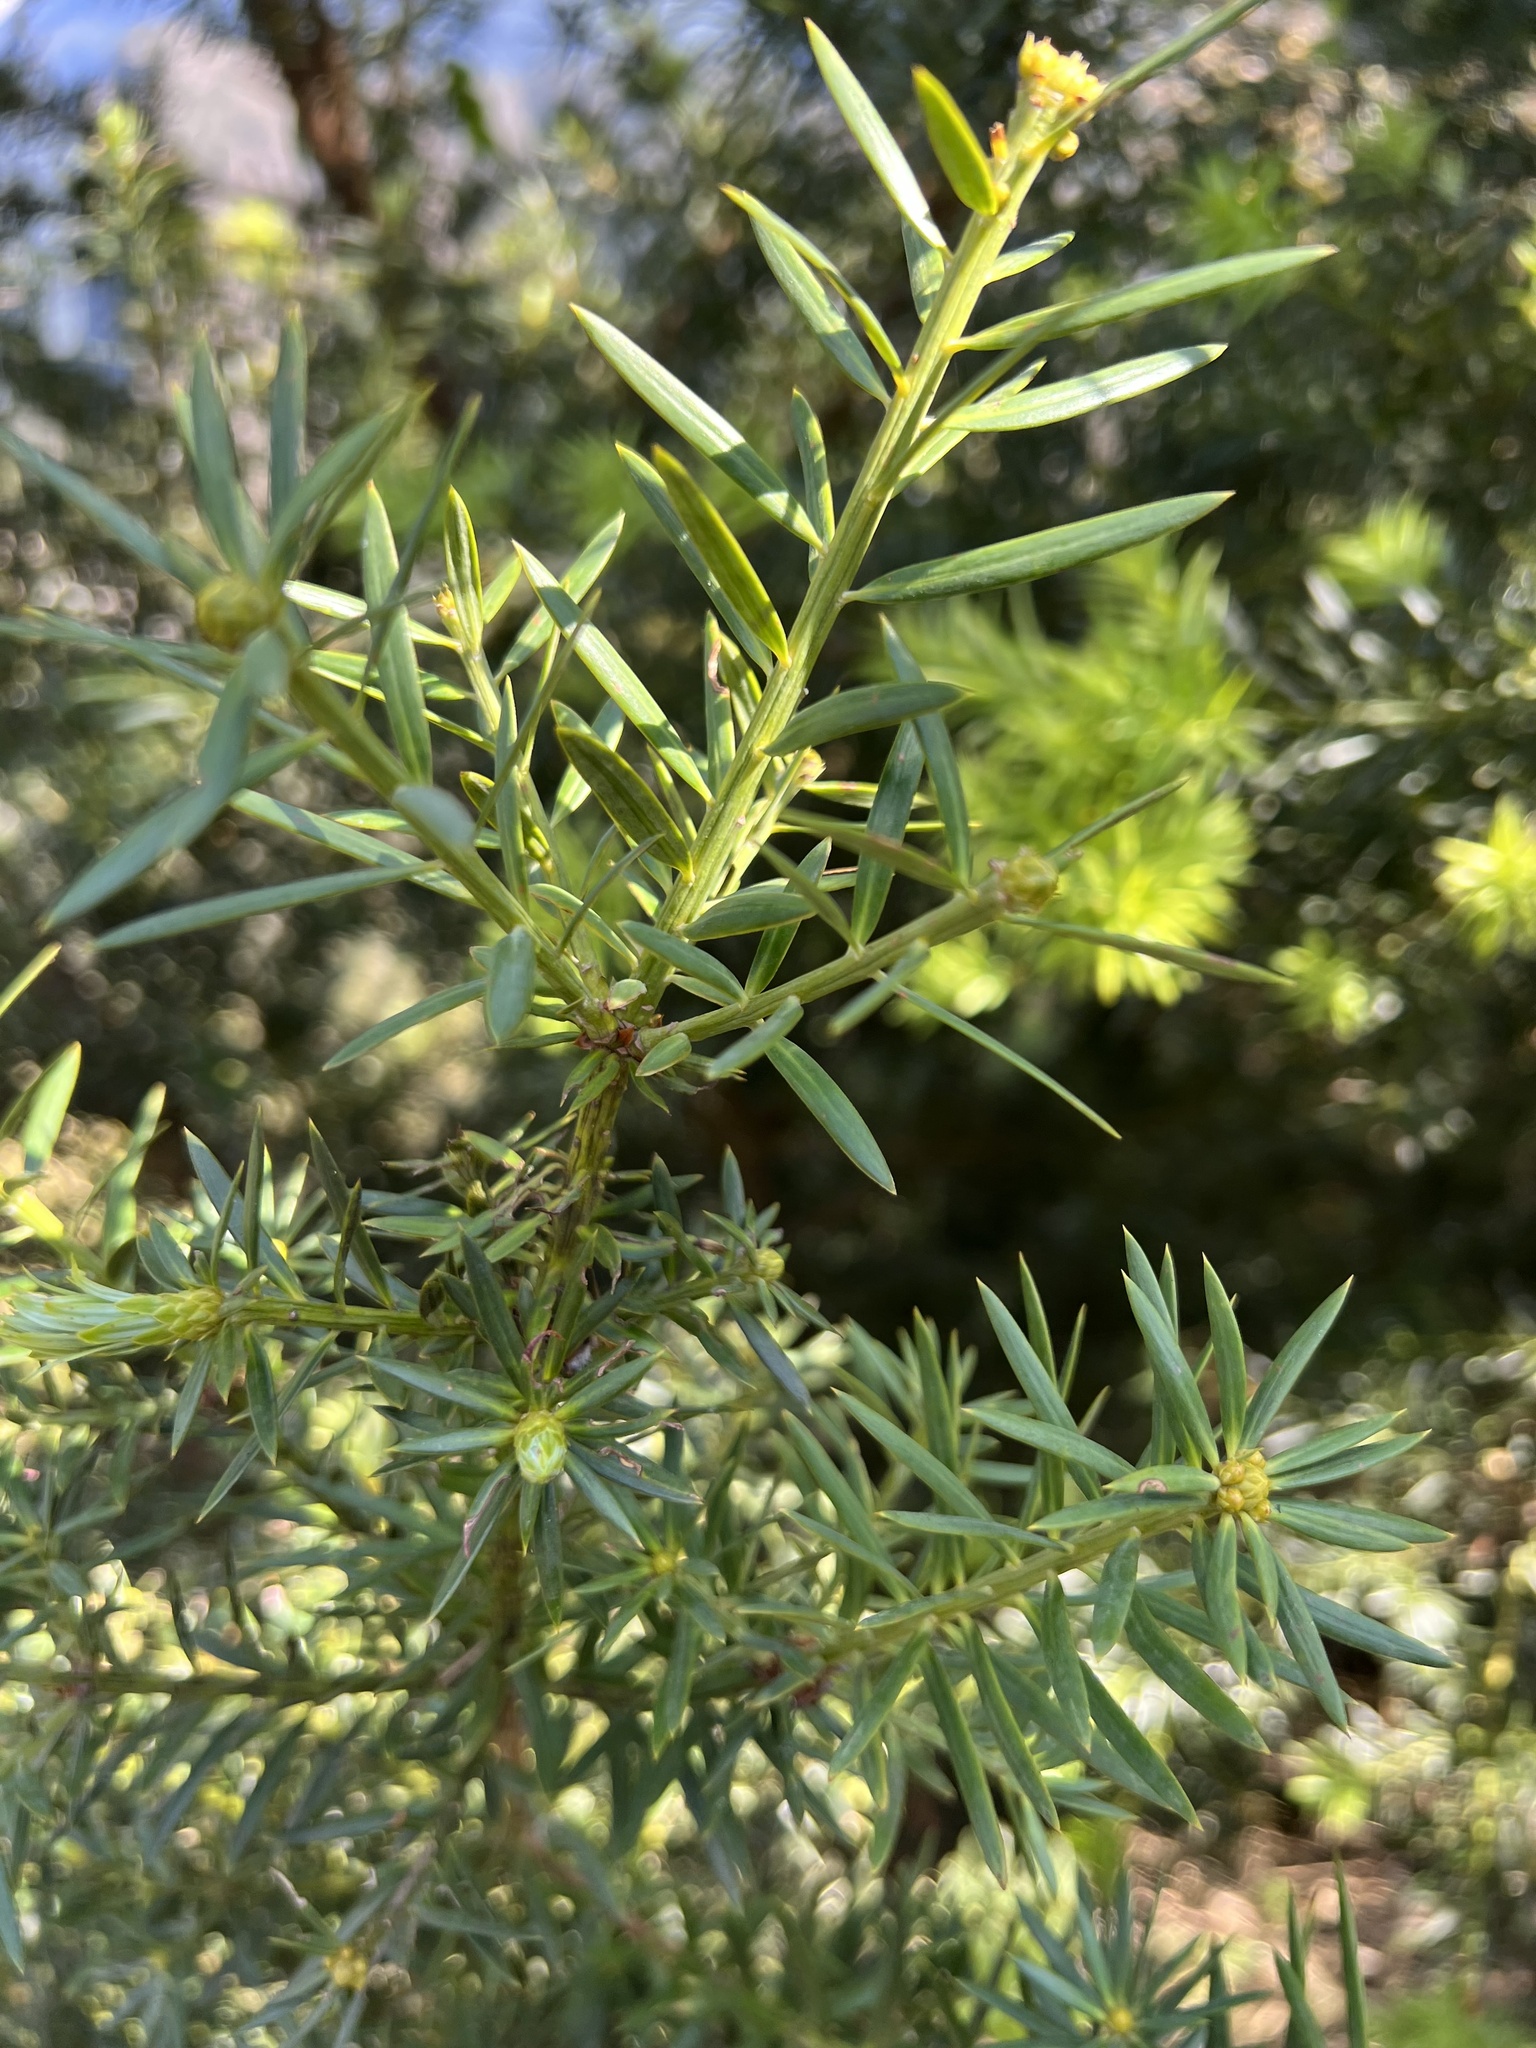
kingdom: Plantae
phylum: Tracheophyta
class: Pinopsida
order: Pinales
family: Podocarpaceae
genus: Podocarpus
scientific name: Podocarpus glomeratus
